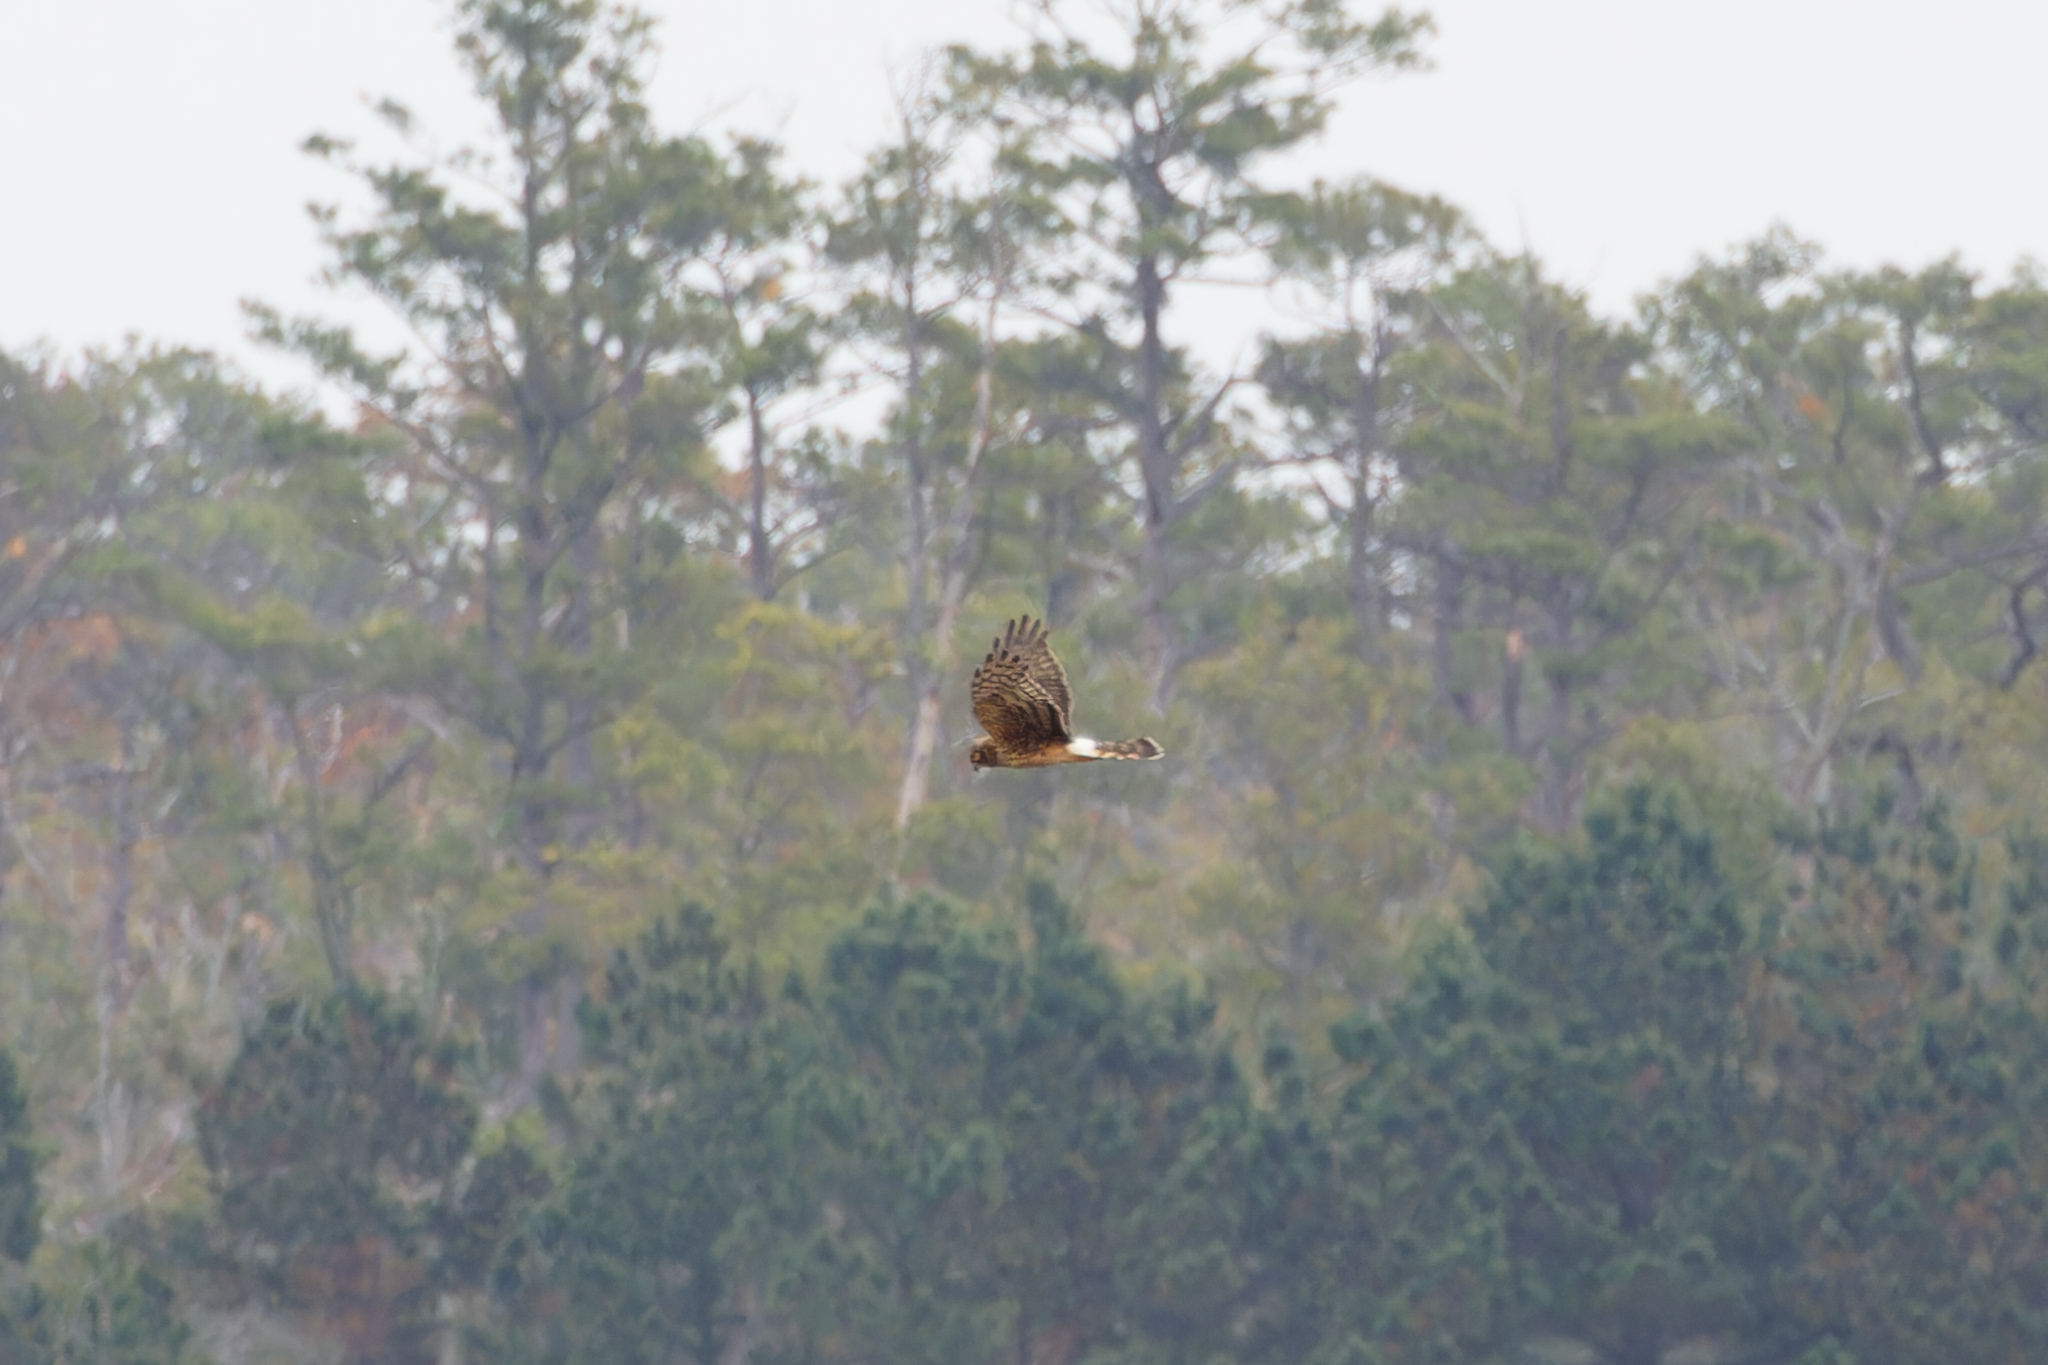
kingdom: Animalia
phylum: Chordata
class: Aves
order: Accipitriformes
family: Accipitridae
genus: Circus
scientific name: Circus cyaneus
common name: Hen harrier
